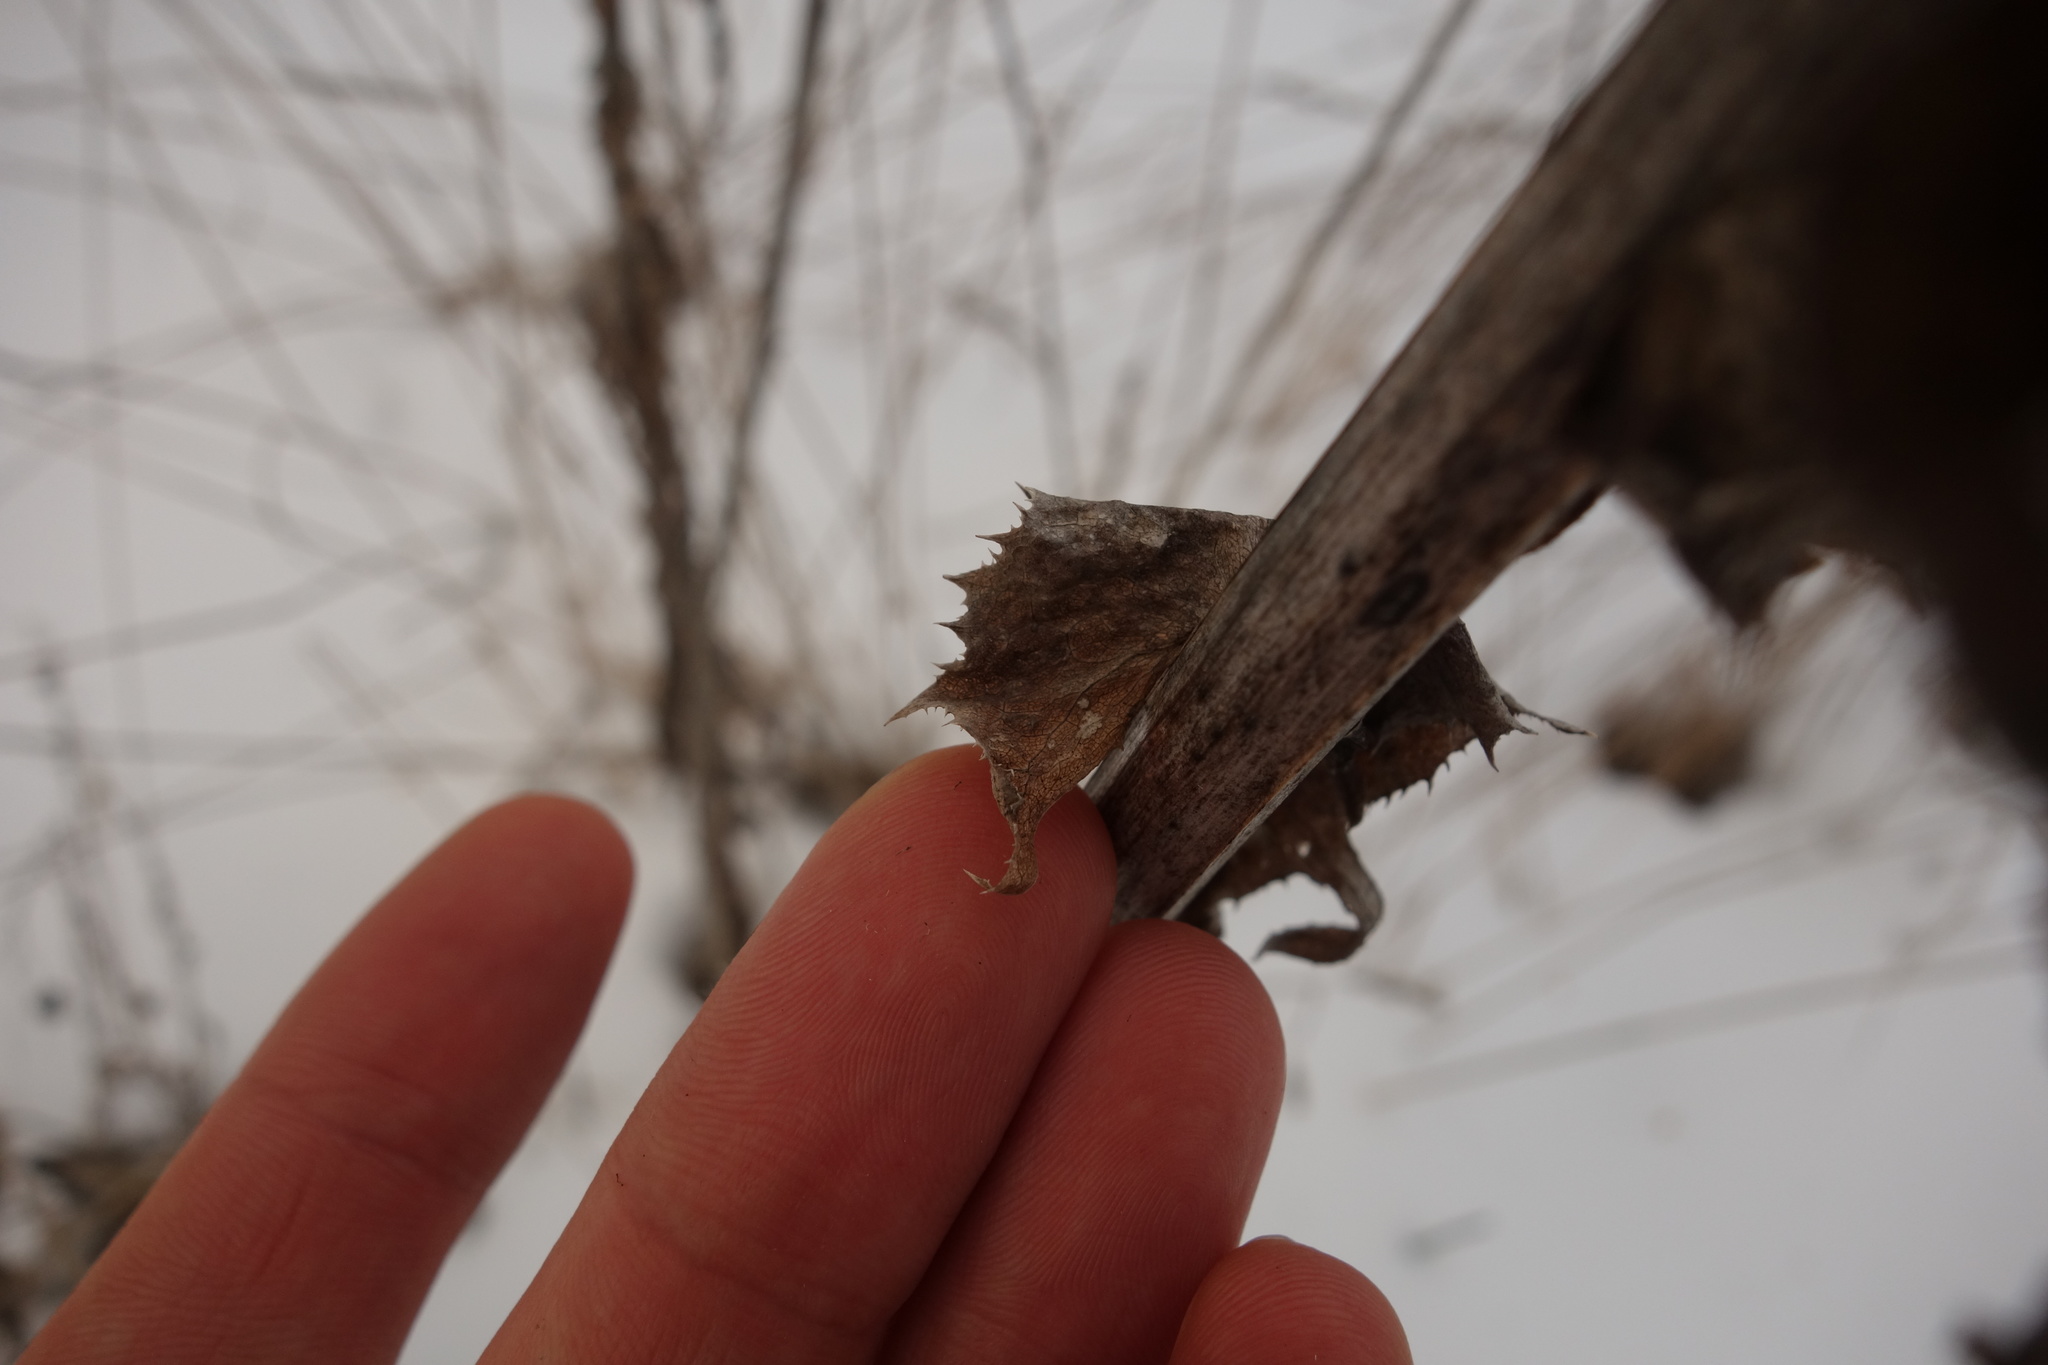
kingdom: Plantae
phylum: Tracheophyta
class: Magnoliopsida
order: Asterales
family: Asteraceae
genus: Sonchus
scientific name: Sonchus palustris
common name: Marsh sow-thistle
